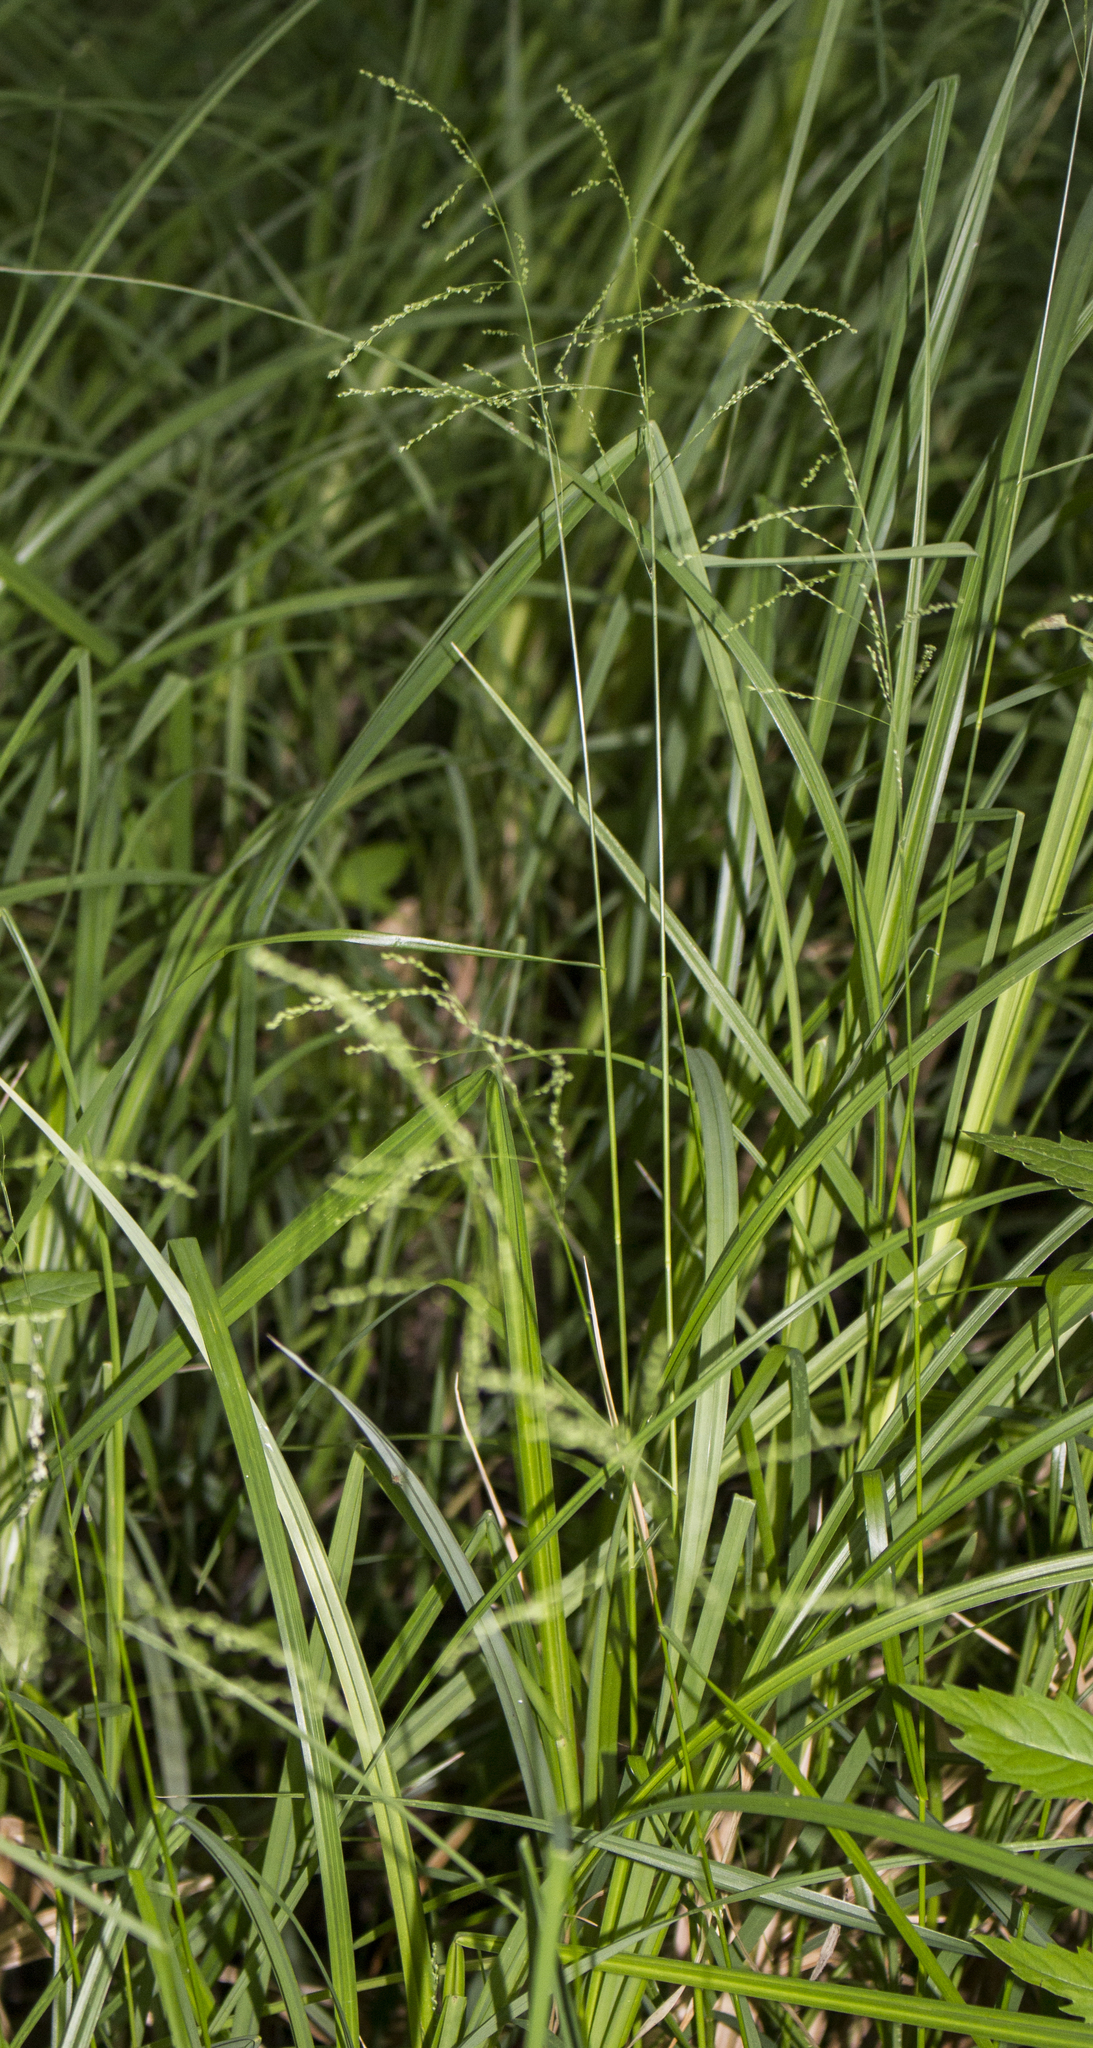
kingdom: Plantae
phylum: Tracheophyta
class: Liliopsida
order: Poales
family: Poaceae
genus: Glyceria
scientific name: Glyceria striata
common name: Fowl manna grass
